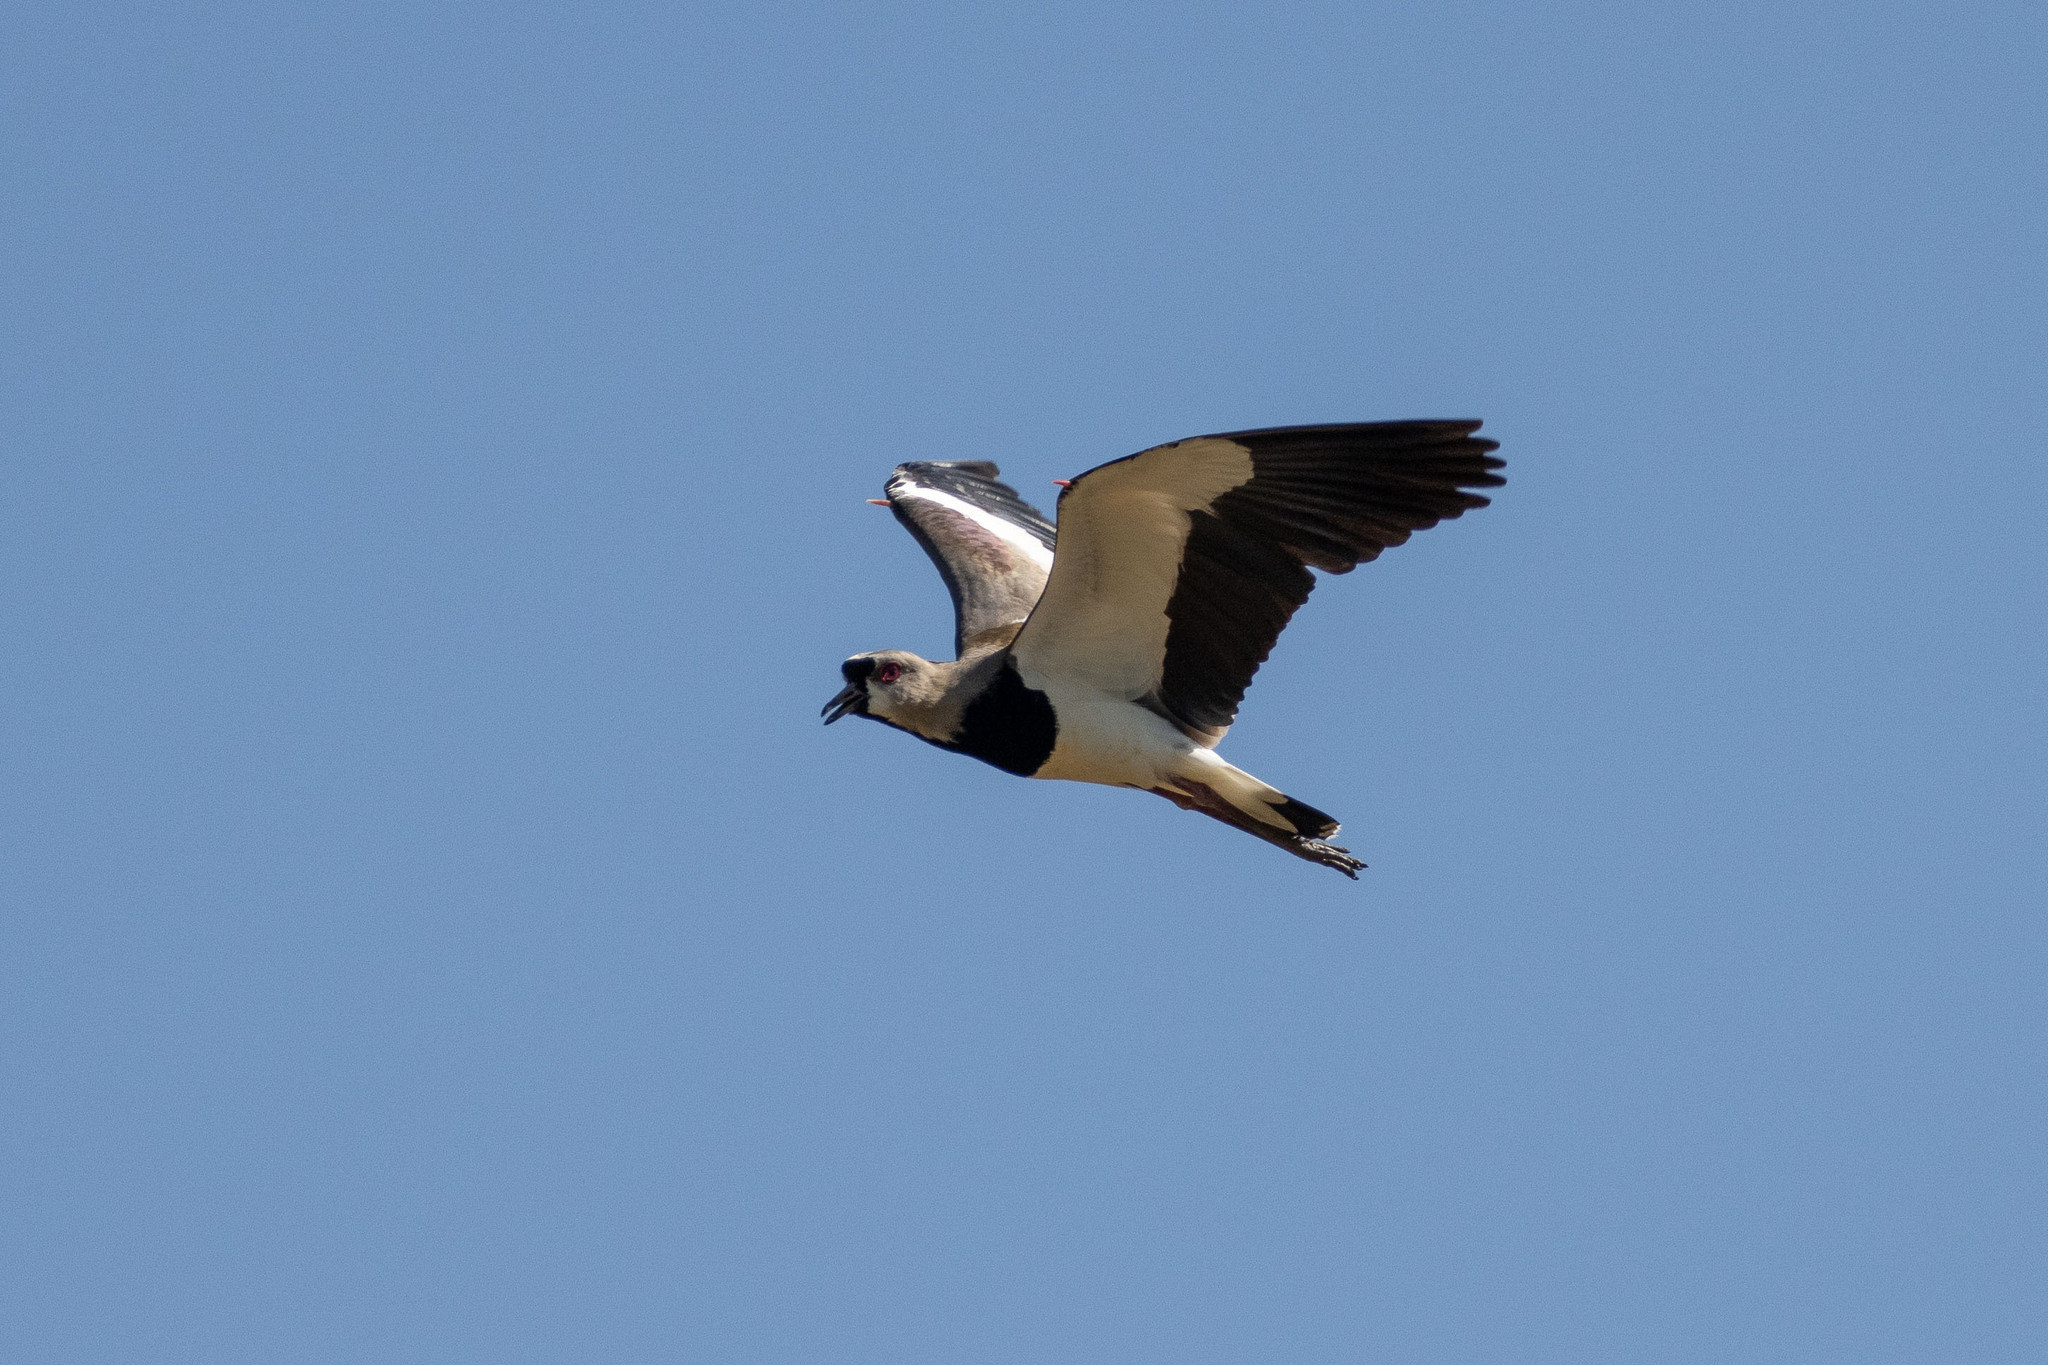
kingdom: Animalia
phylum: Chordata
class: Aves
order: Charadriiformes
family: Charadriidae
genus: Vanellus
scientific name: Vanellus chilensis
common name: Southern lapwing
